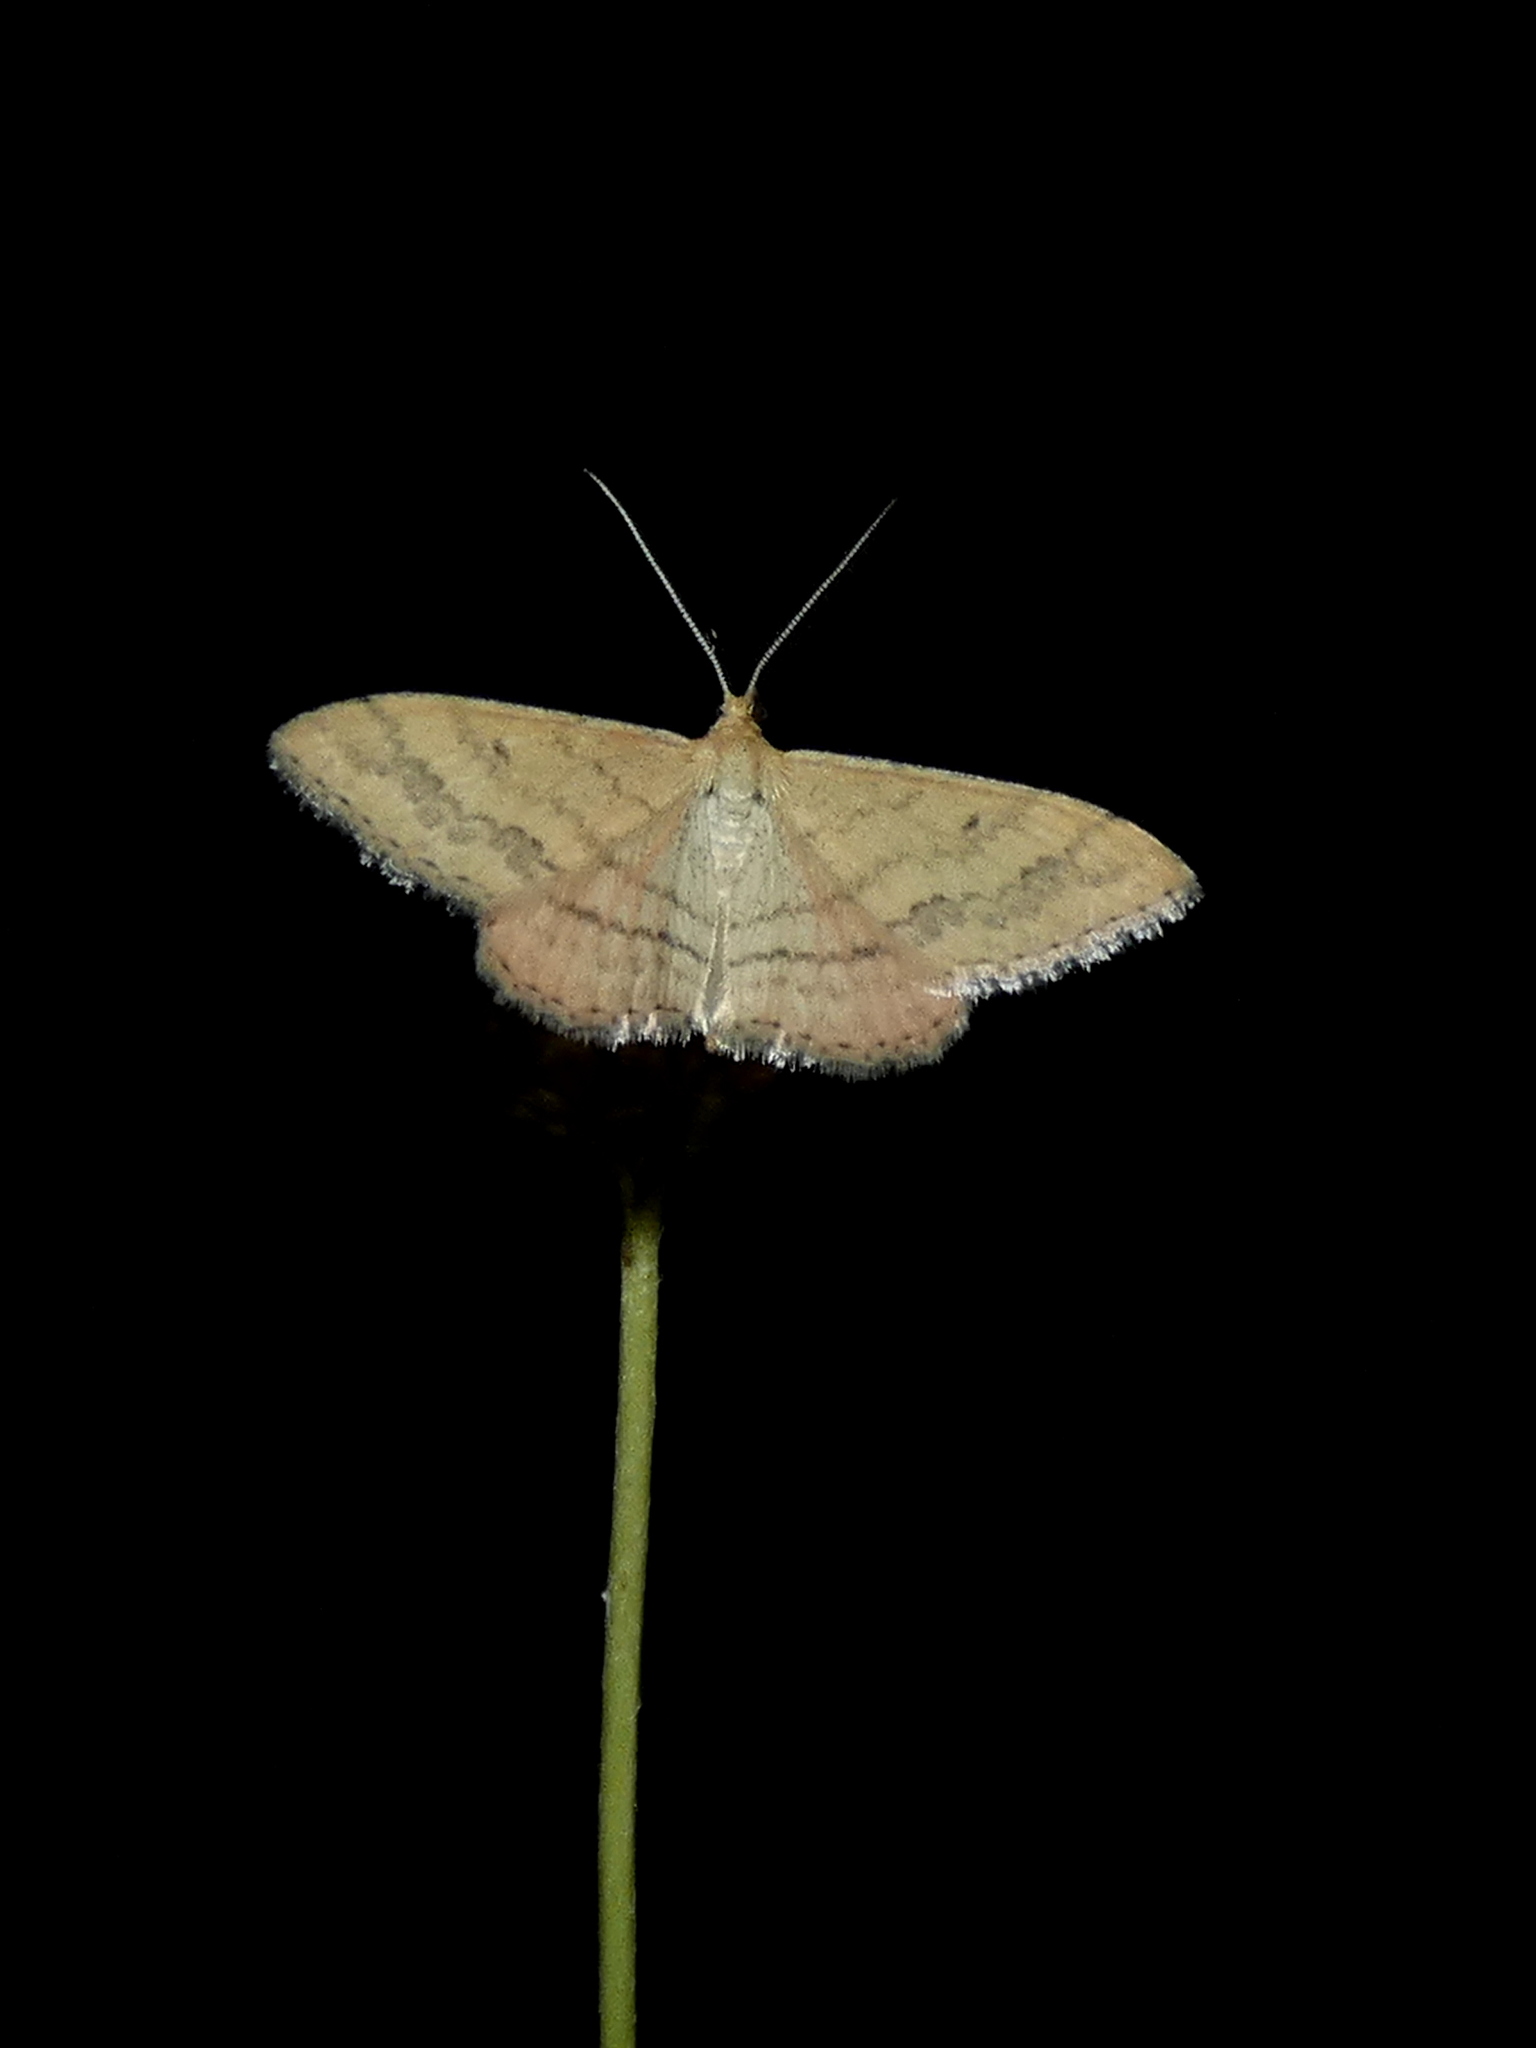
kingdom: Animalia
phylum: Arthropoda
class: Insecta
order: Lepidoptera
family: Geometridae
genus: Scopula
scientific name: Scopula rubraria
